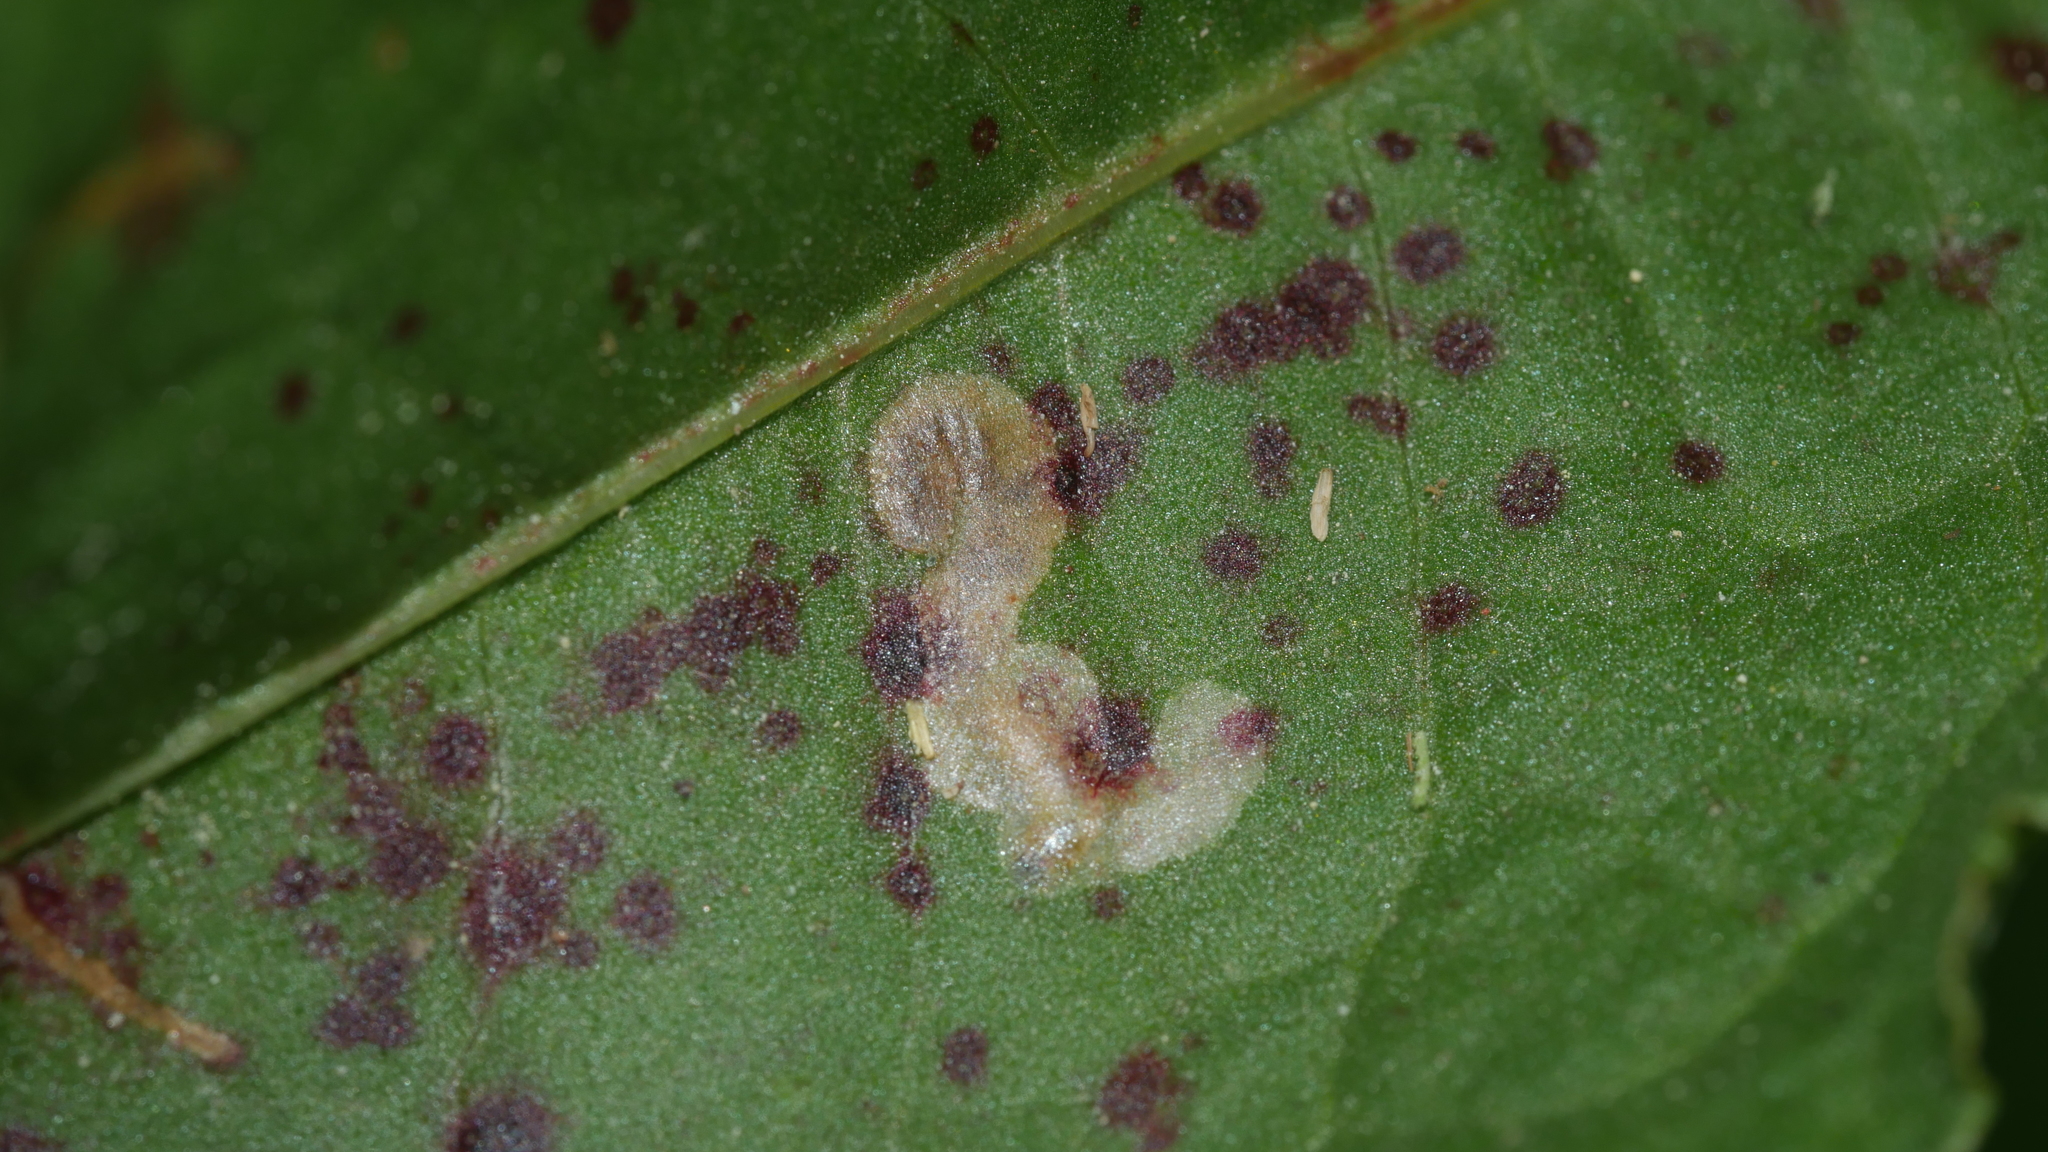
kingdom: Animalia
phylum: Arthropoda
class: Insecta
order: Coleoptera
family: Chrysomelidae
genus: Mantura
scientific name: Mantura floridana
